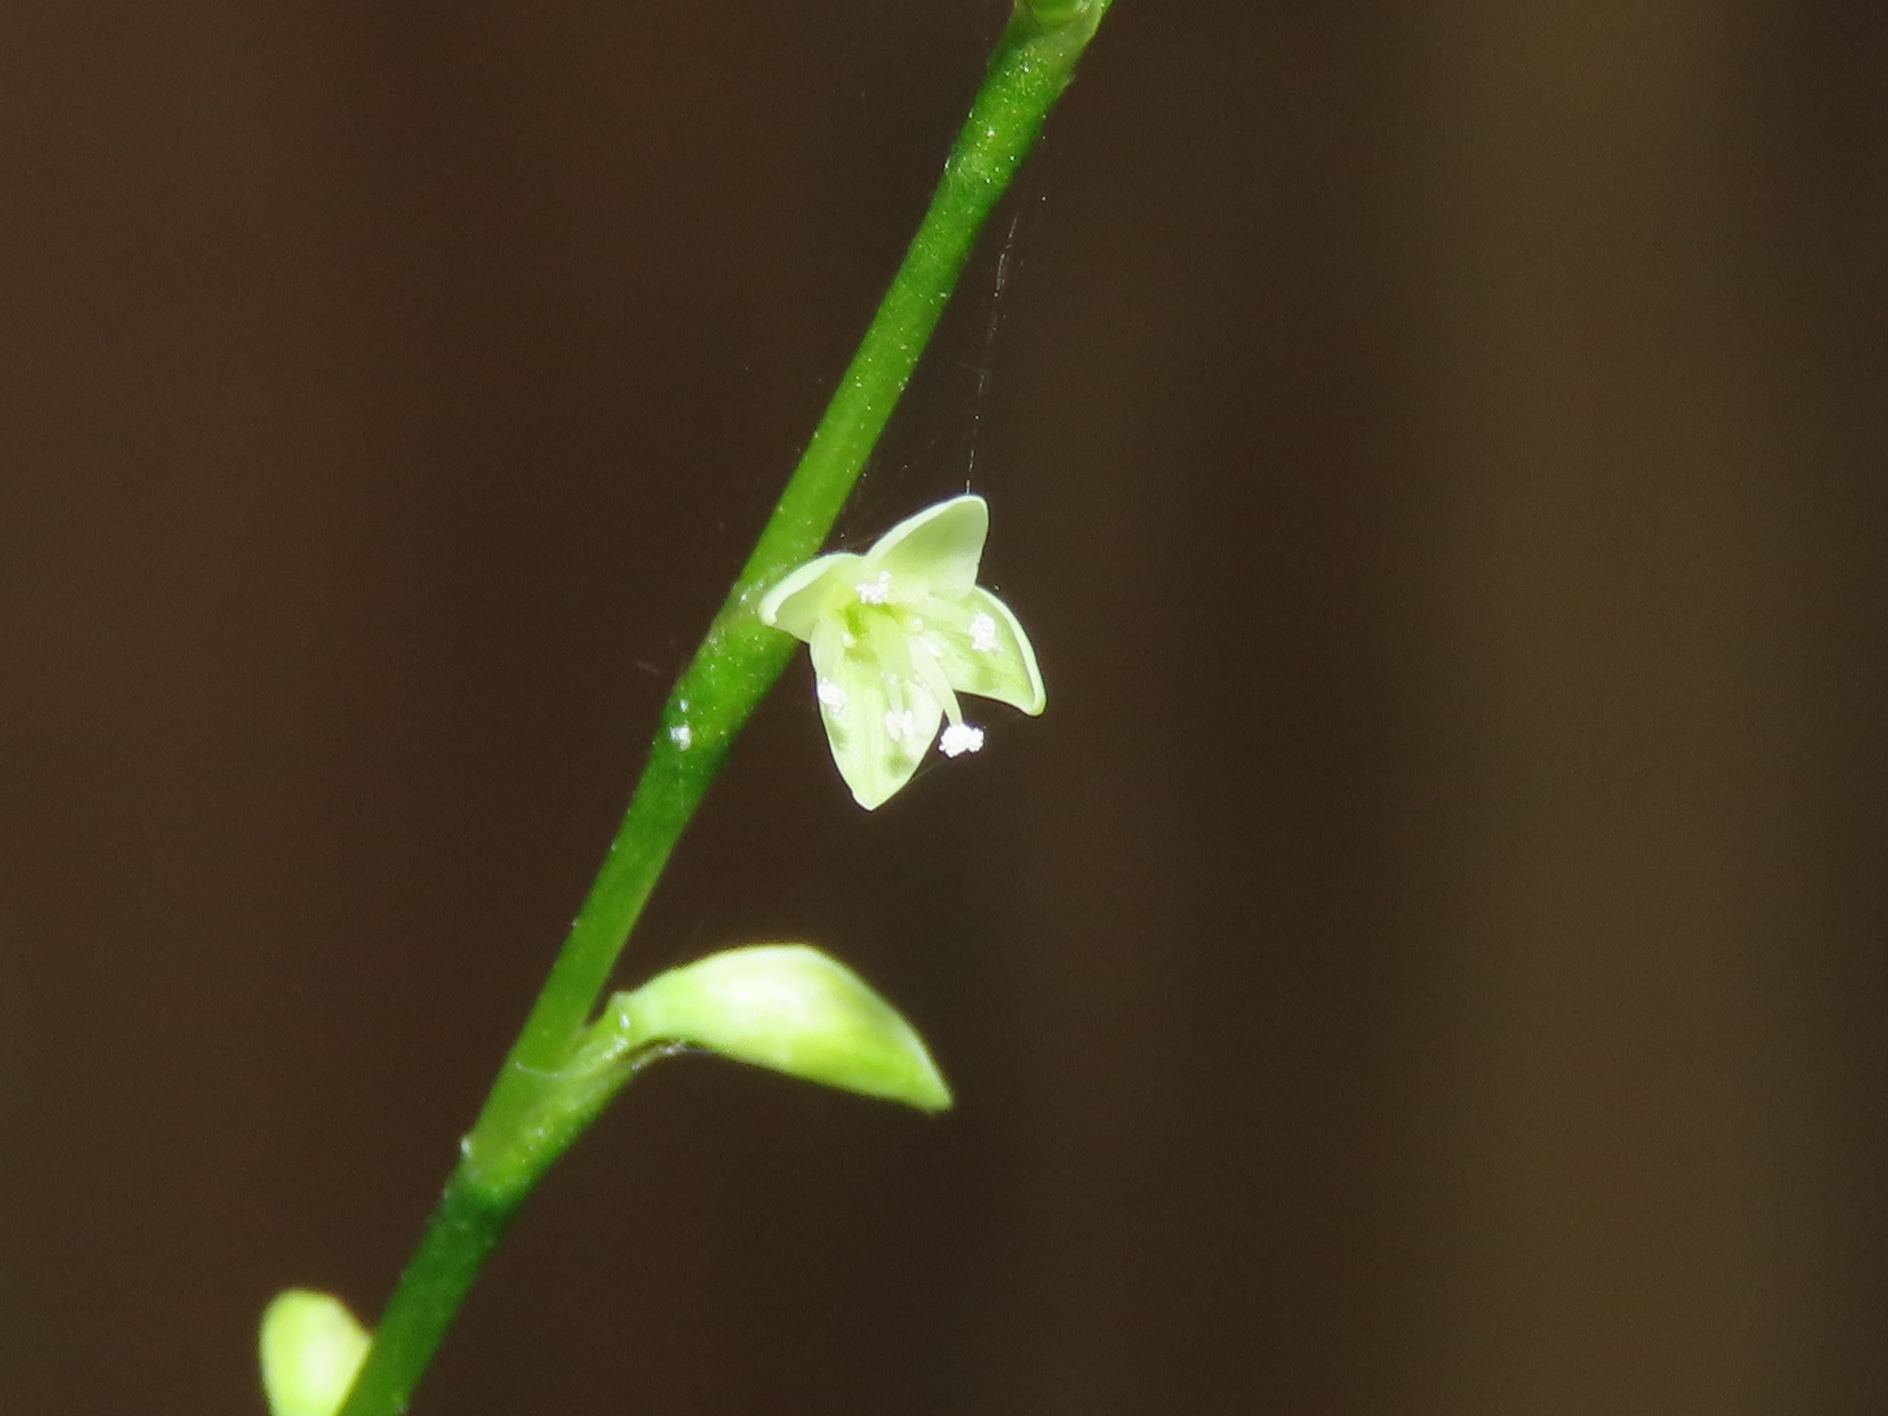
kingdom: Plantae
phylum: Tracheophyta
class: Magnoliopsida
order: Caryophyllales
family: Polygonaceae
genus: Persicaria
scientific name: Persicaria virginiana
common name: Jumpseed
